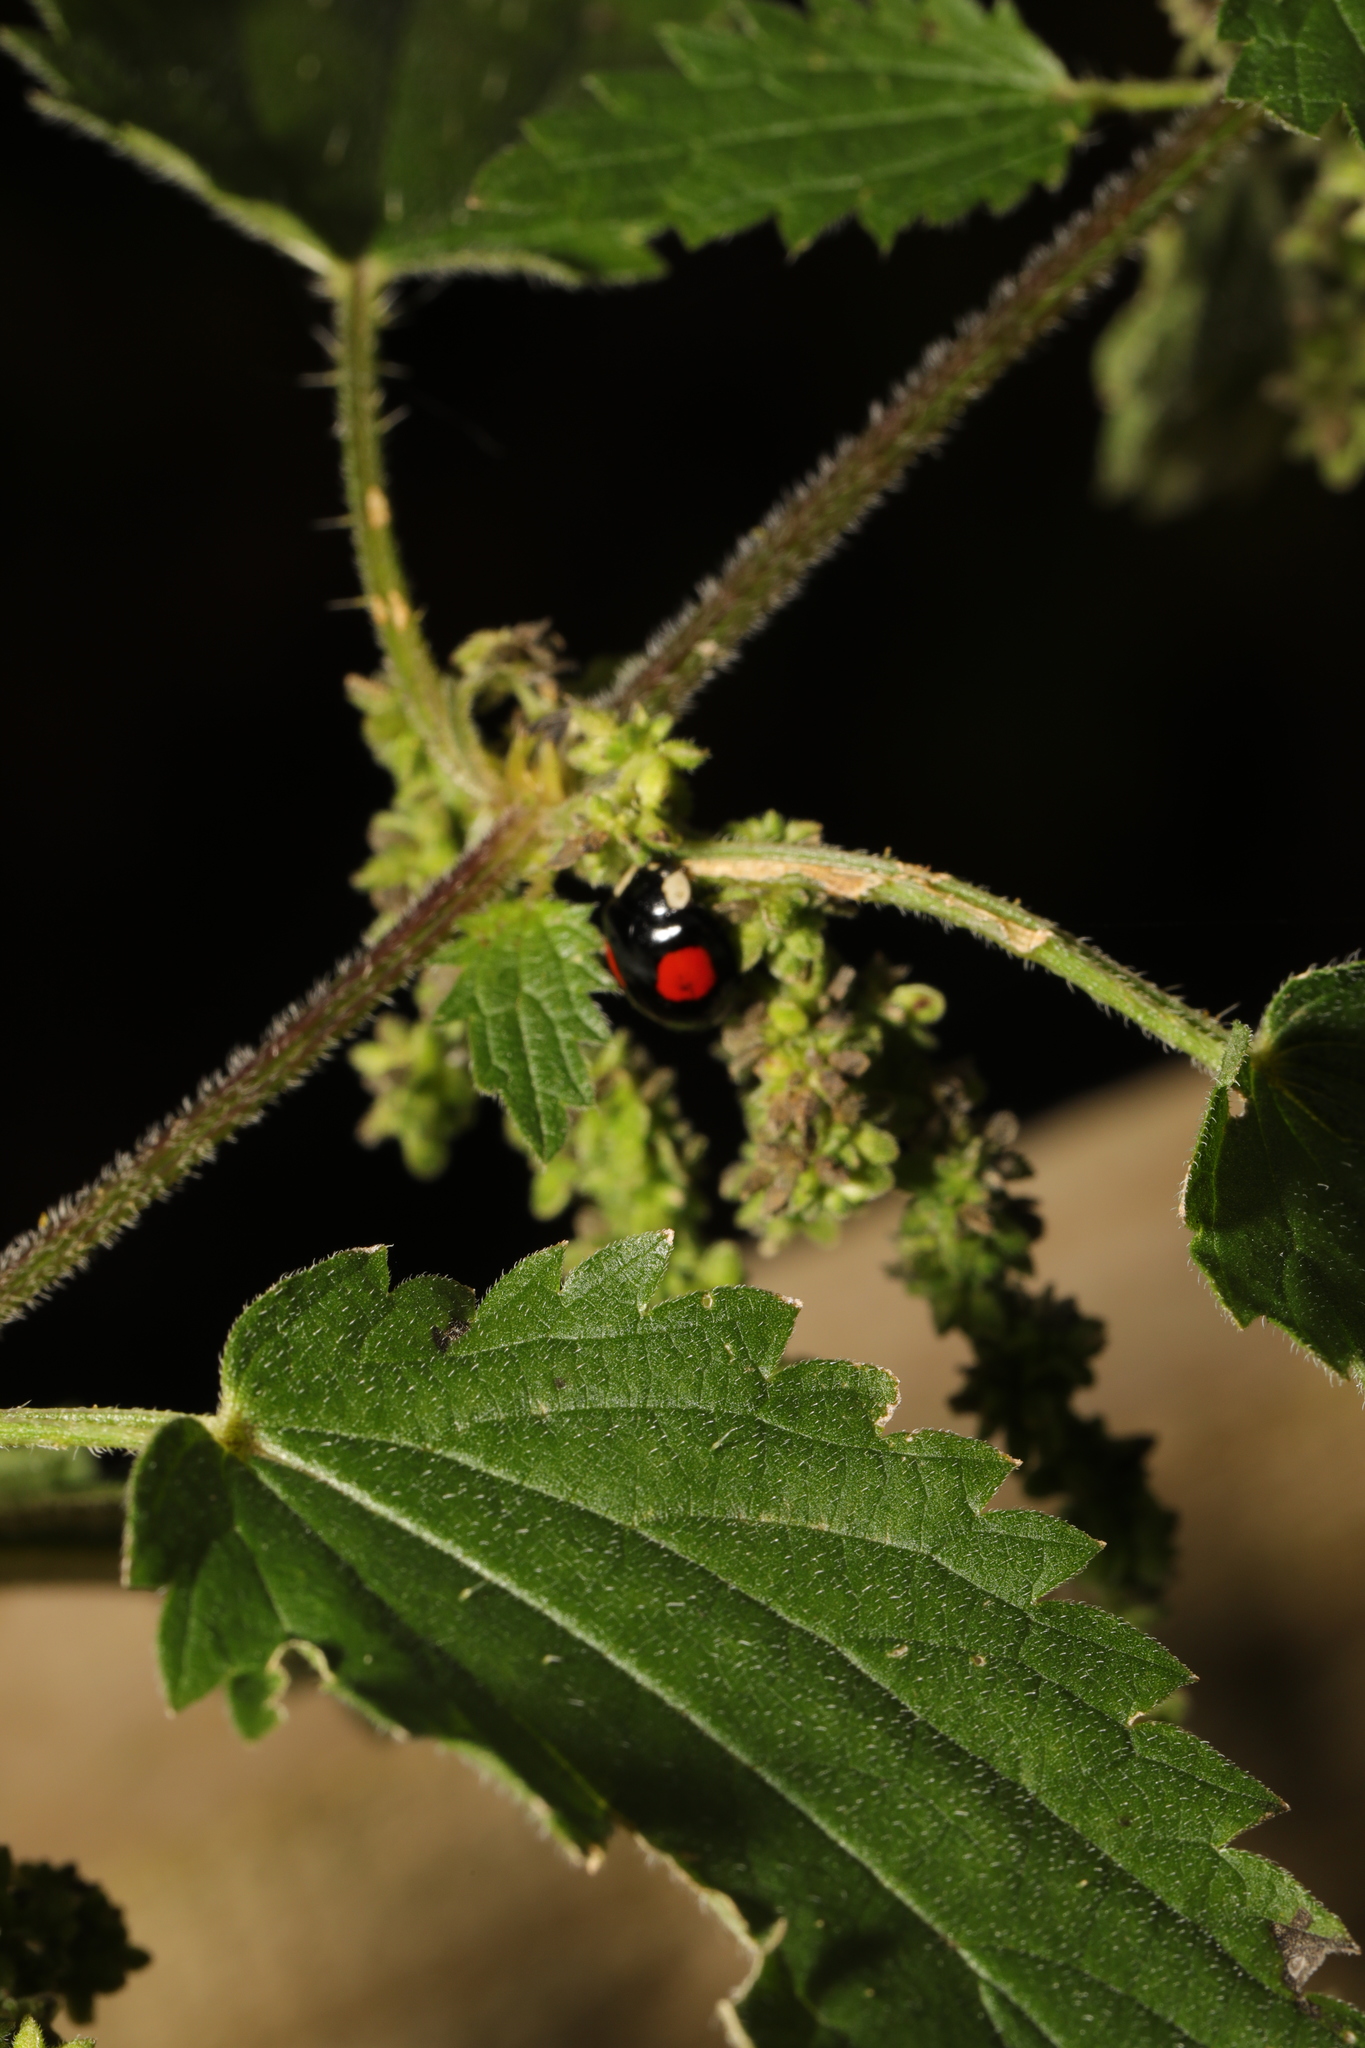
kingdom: Animalia
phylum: Arthropoda
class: Insecta
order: Coleoptera
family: Coccinellidae
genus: Harmonia
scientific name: Harmonia axyridis
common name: Harlequin ladybird
